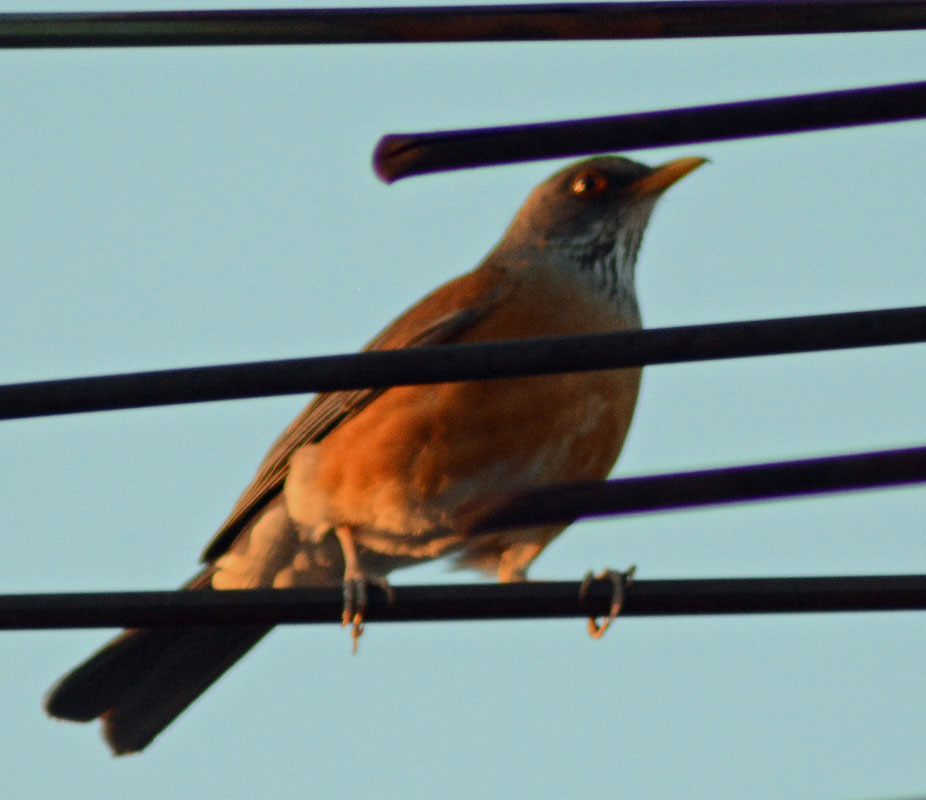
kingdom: Animalia
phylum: Chordata
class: Aves
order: Passeriformes
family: Turdidae
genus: Turdus
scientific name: Turdus rufopalliatus
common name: Rufous-backed robin
